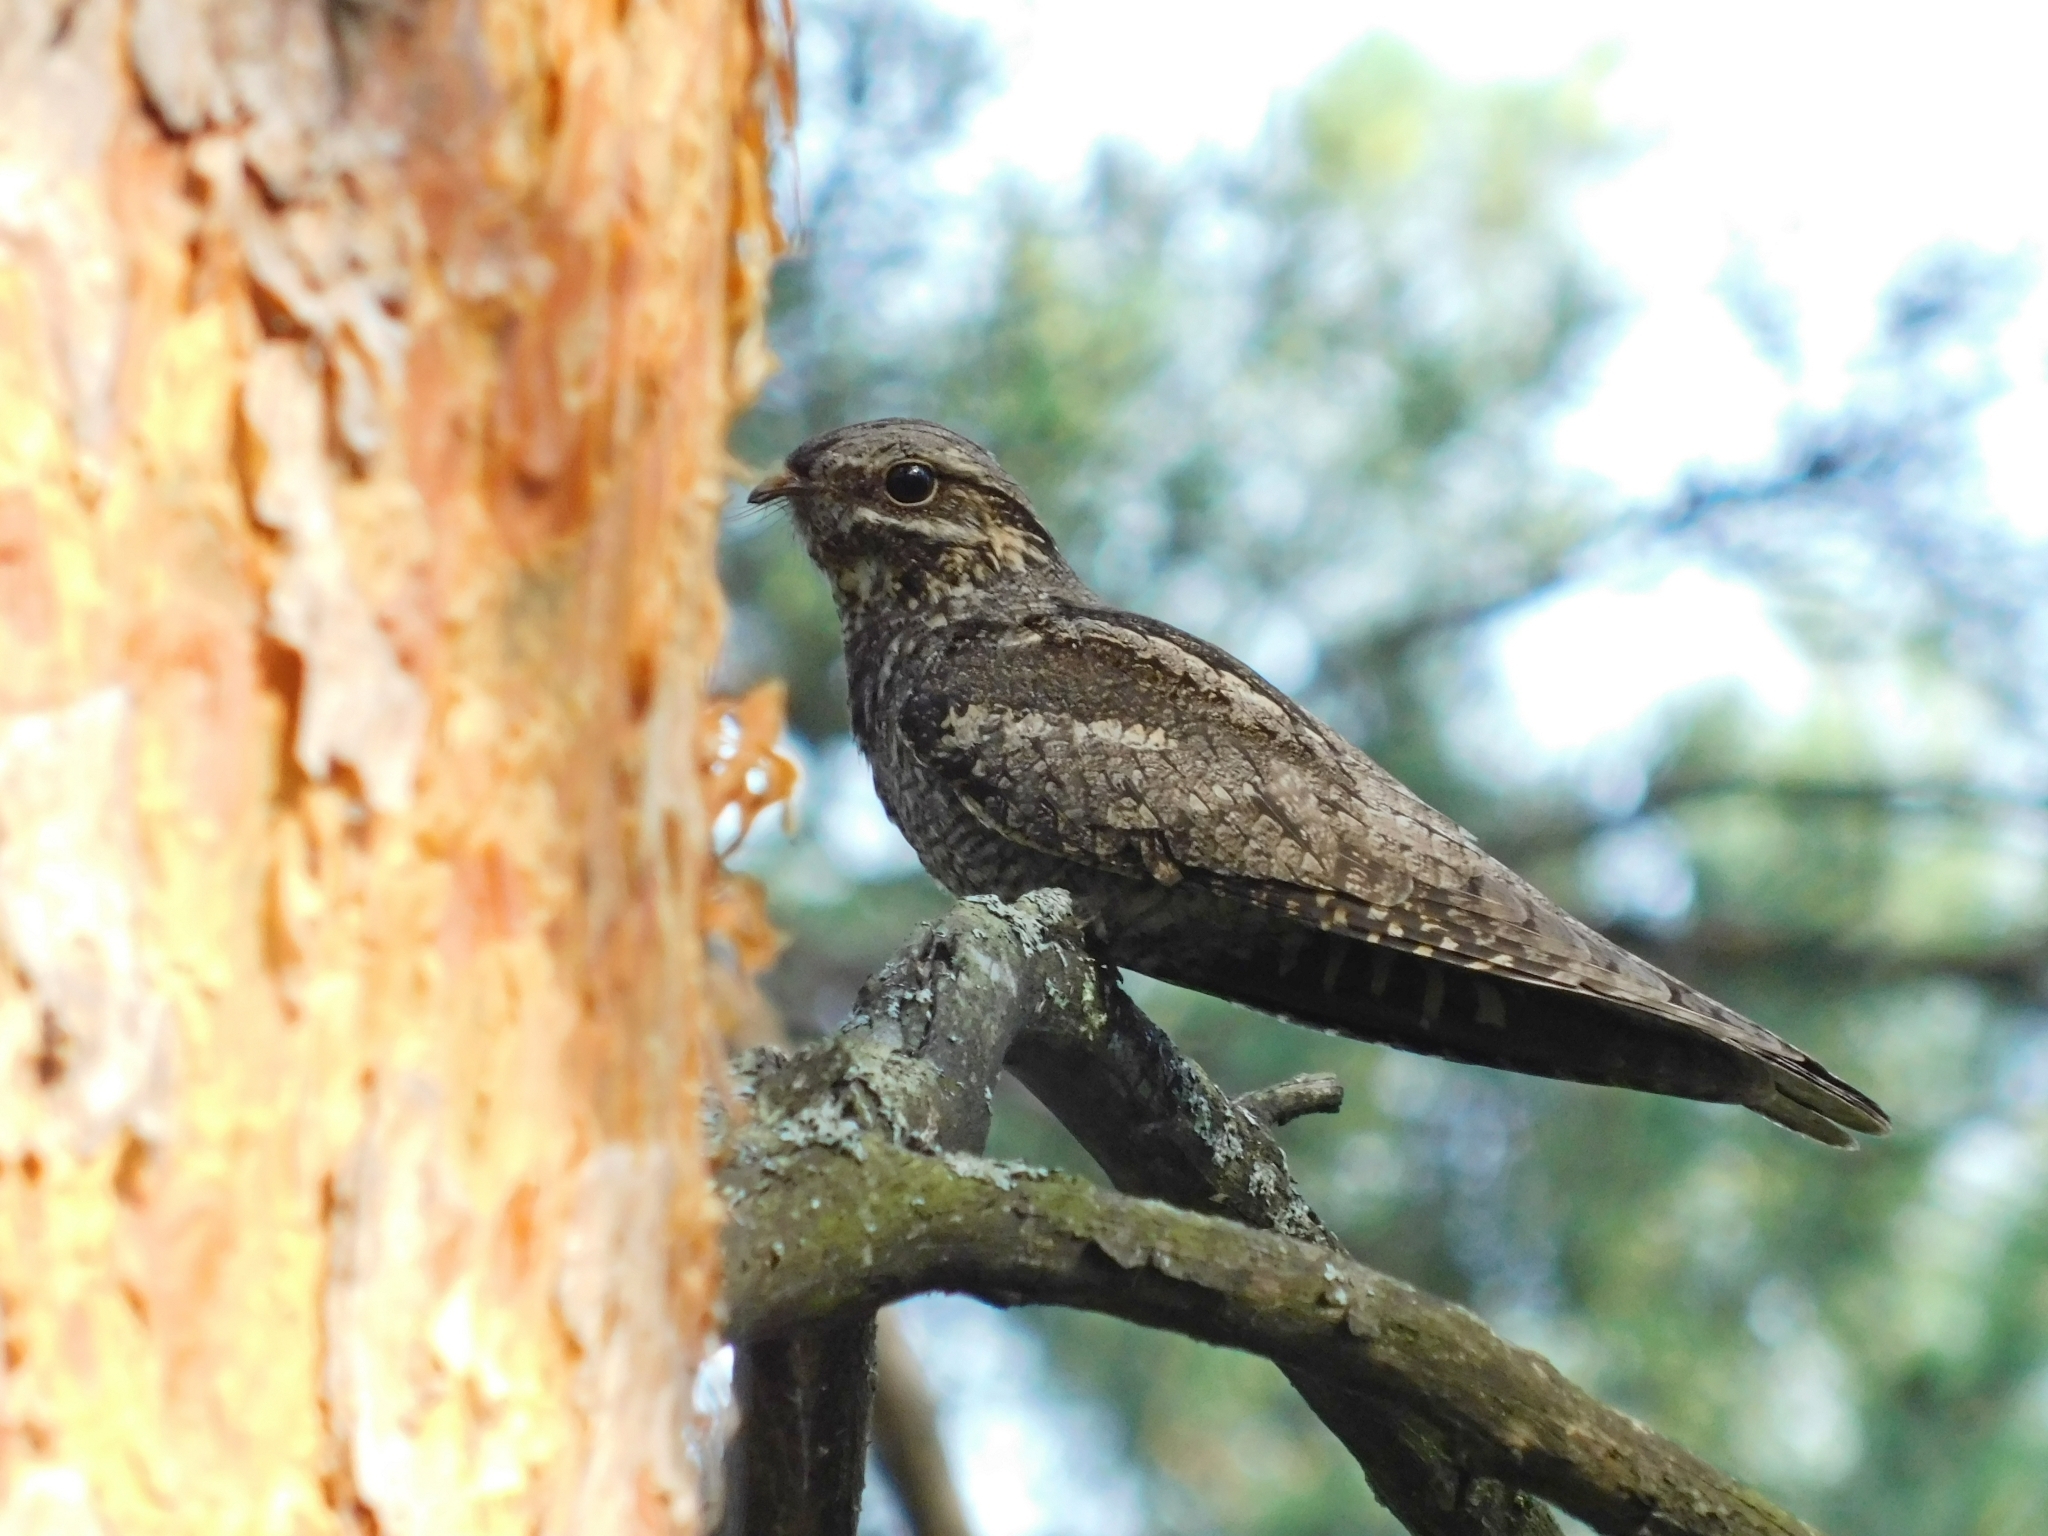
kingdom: Animalia
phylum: Chordata
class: Aves
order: Caprimulgiformes
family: Caprimulgidae
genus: Caprimulgus
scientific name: Caprimulgus europaeus
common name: European nightjar
